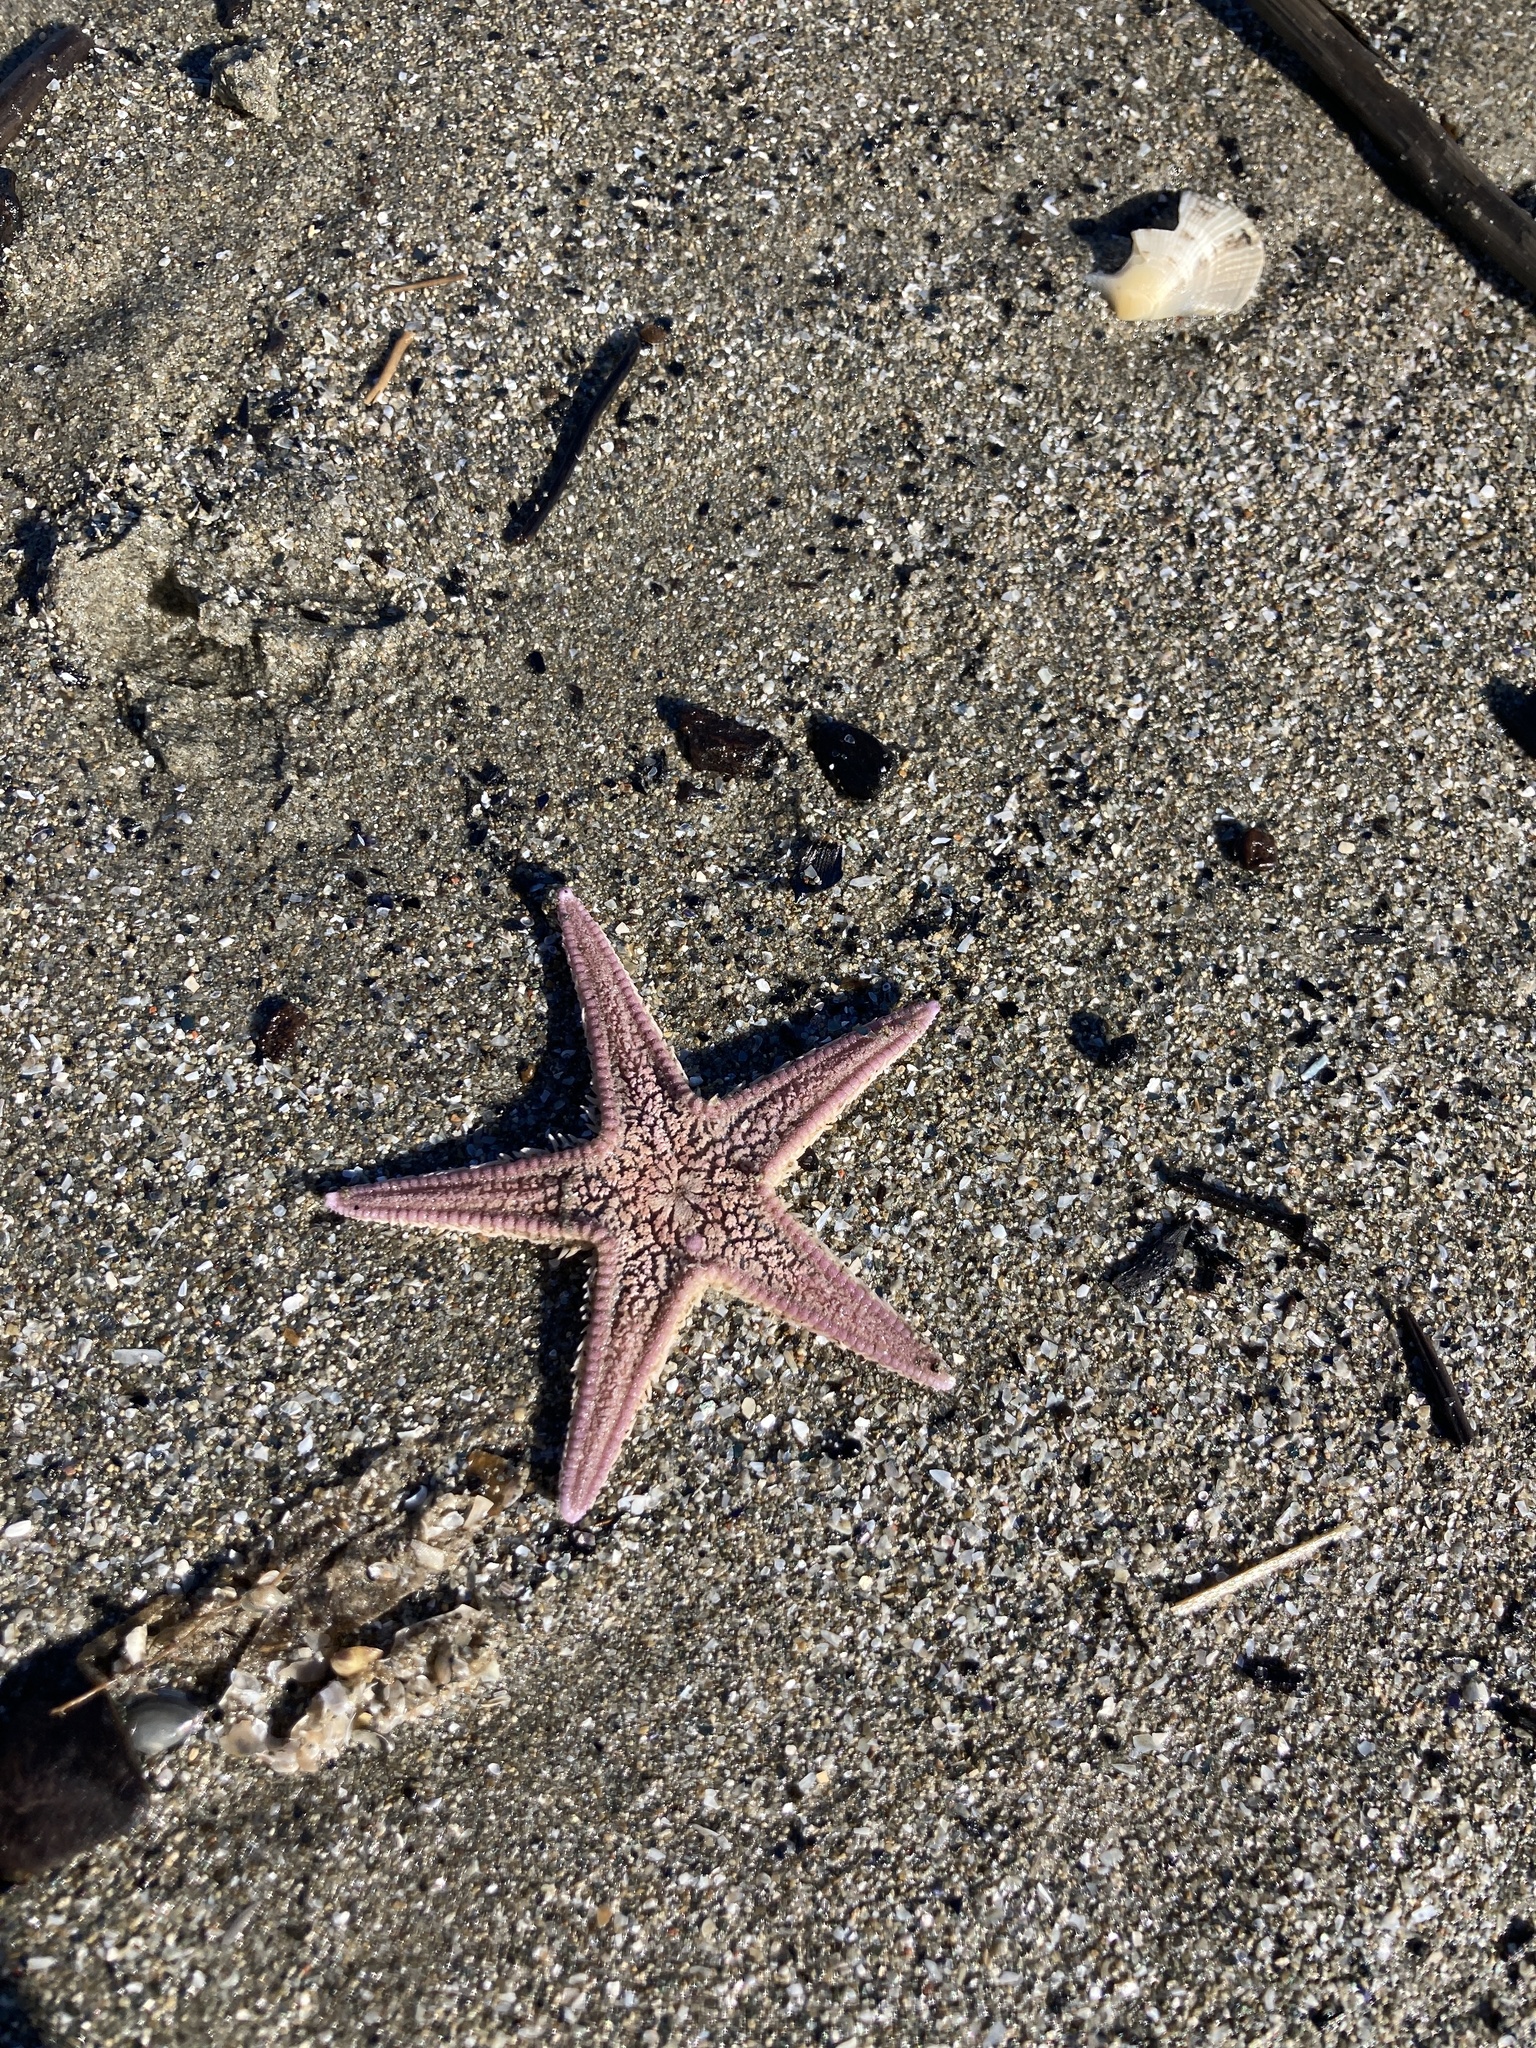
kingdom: Animalia
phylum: Echinodermata
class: Asteroidea
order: Paxillosida
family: Astropectinidae
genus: Astropecten
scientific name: Astropecten irregularis
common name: Sand star
